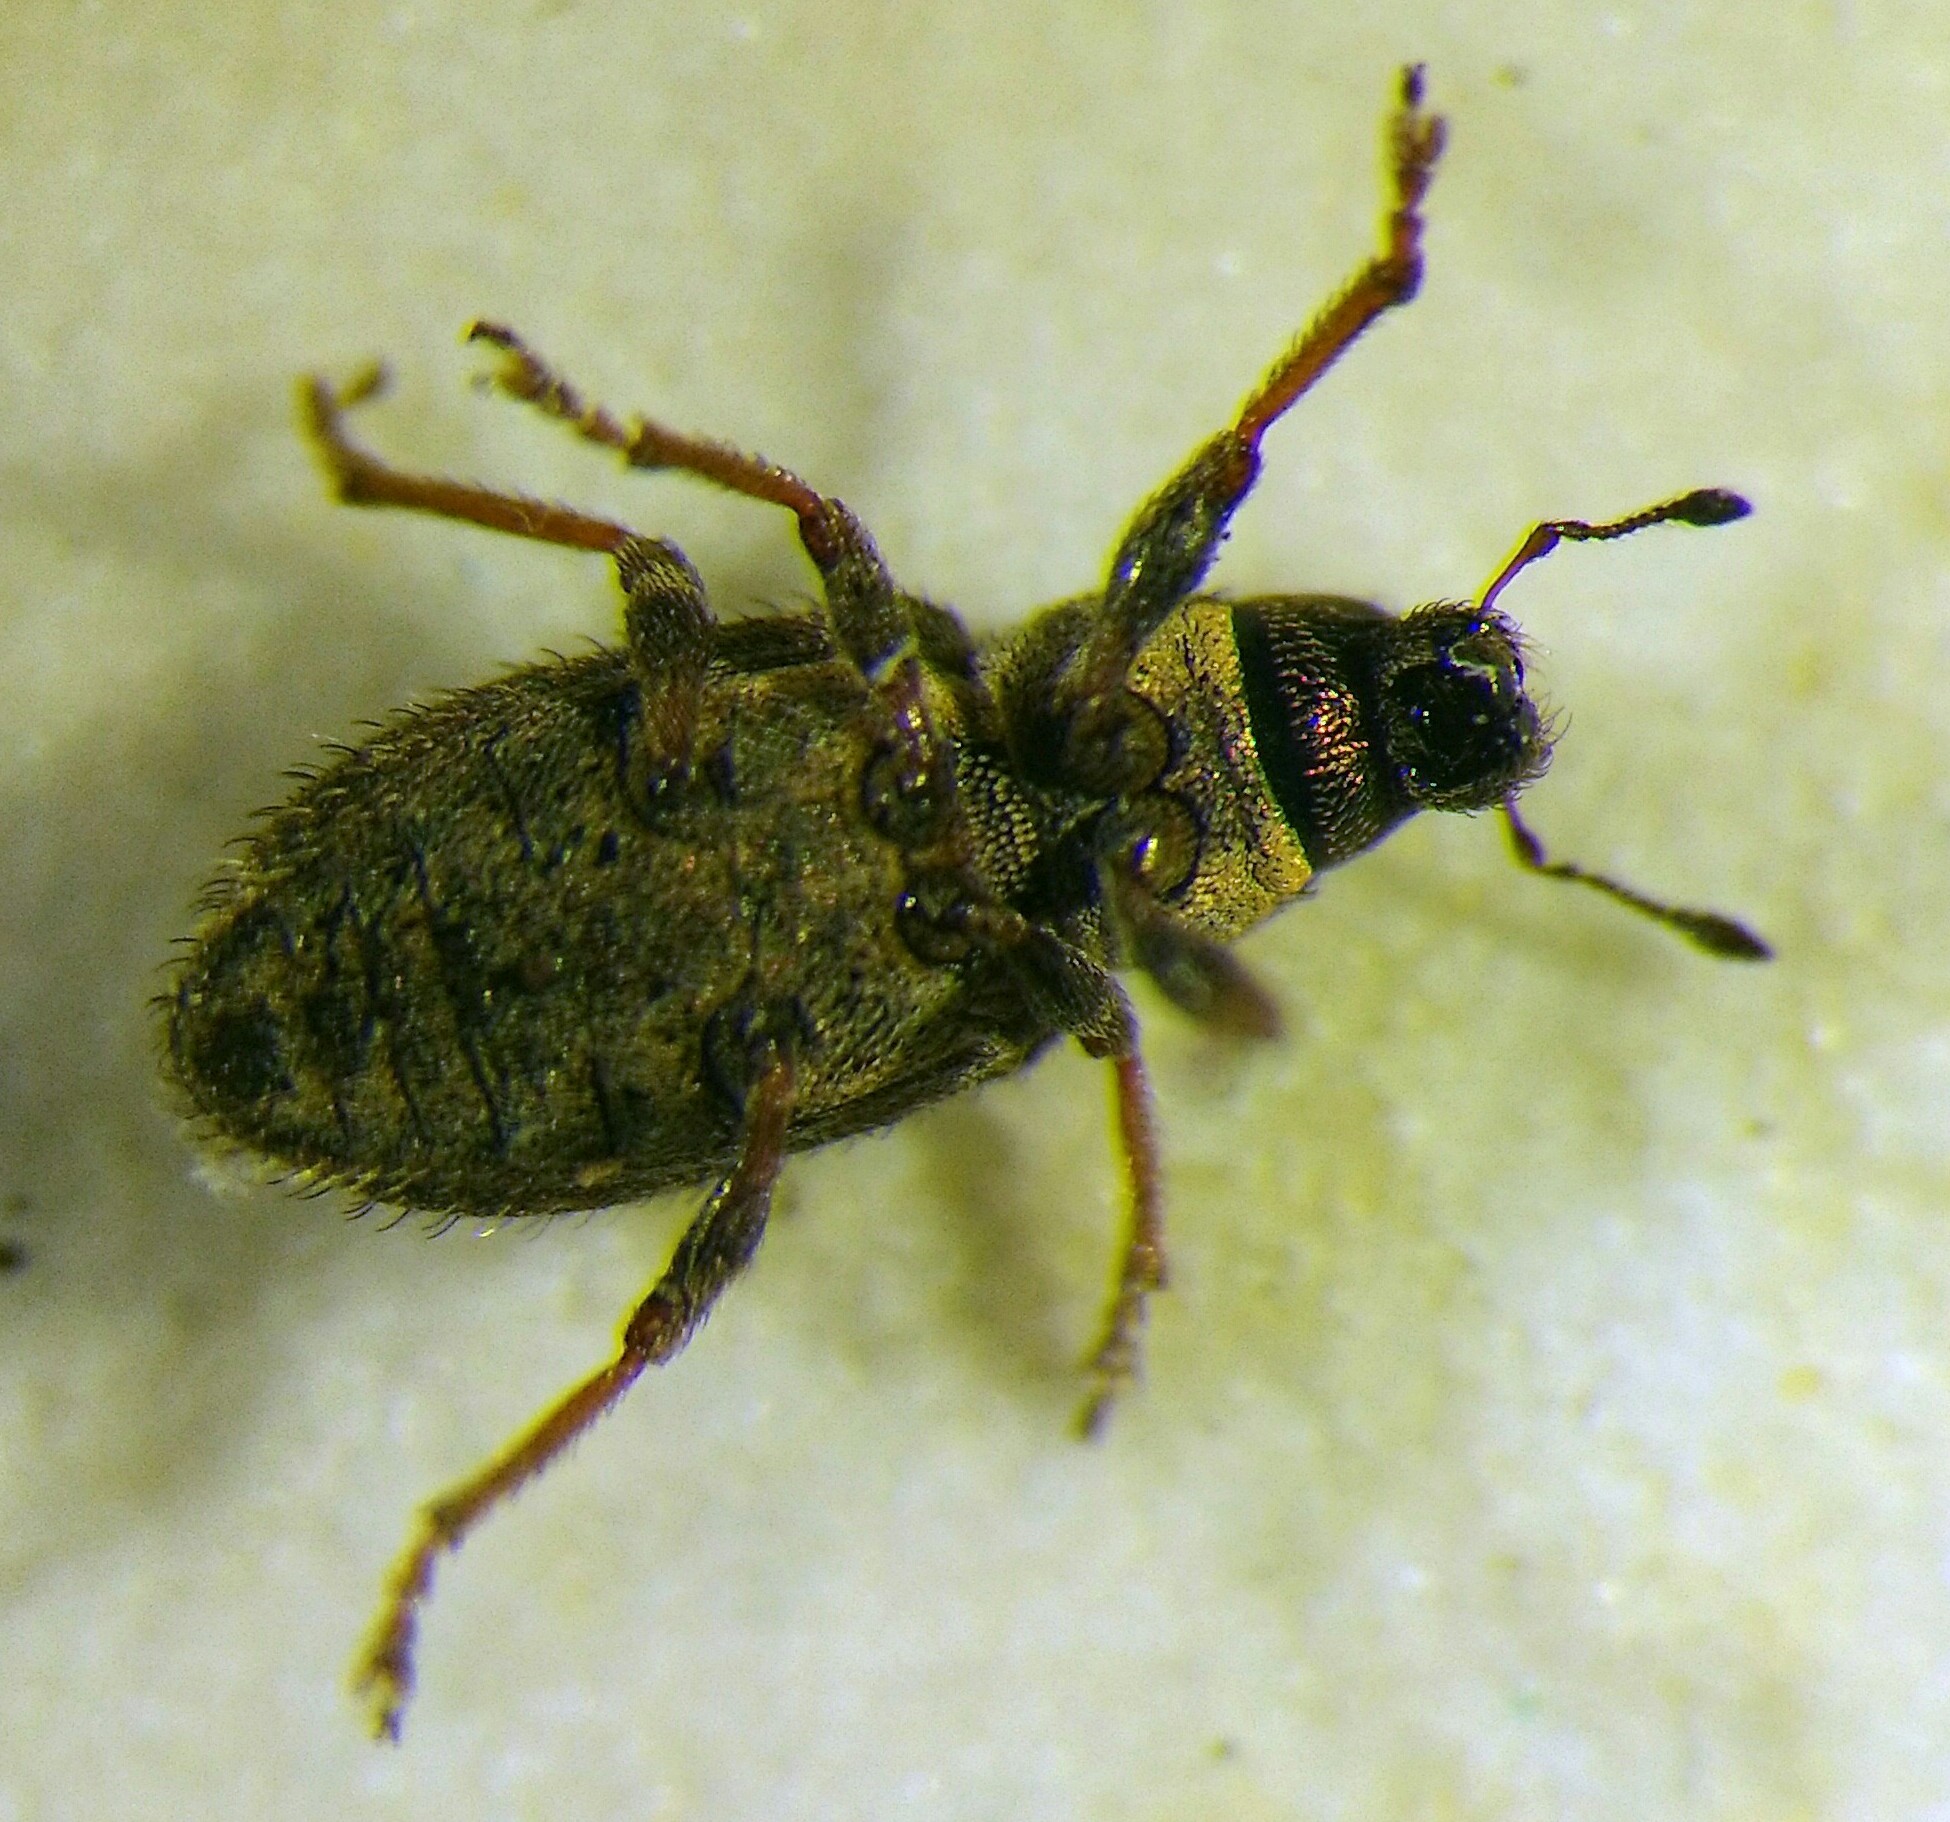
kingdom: Animalia
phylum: Arthropoda
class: Insecta
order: Coleoptera
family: Curculionidae
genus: Sitona
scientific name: Sitona hispidulus
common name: Clover weevil
